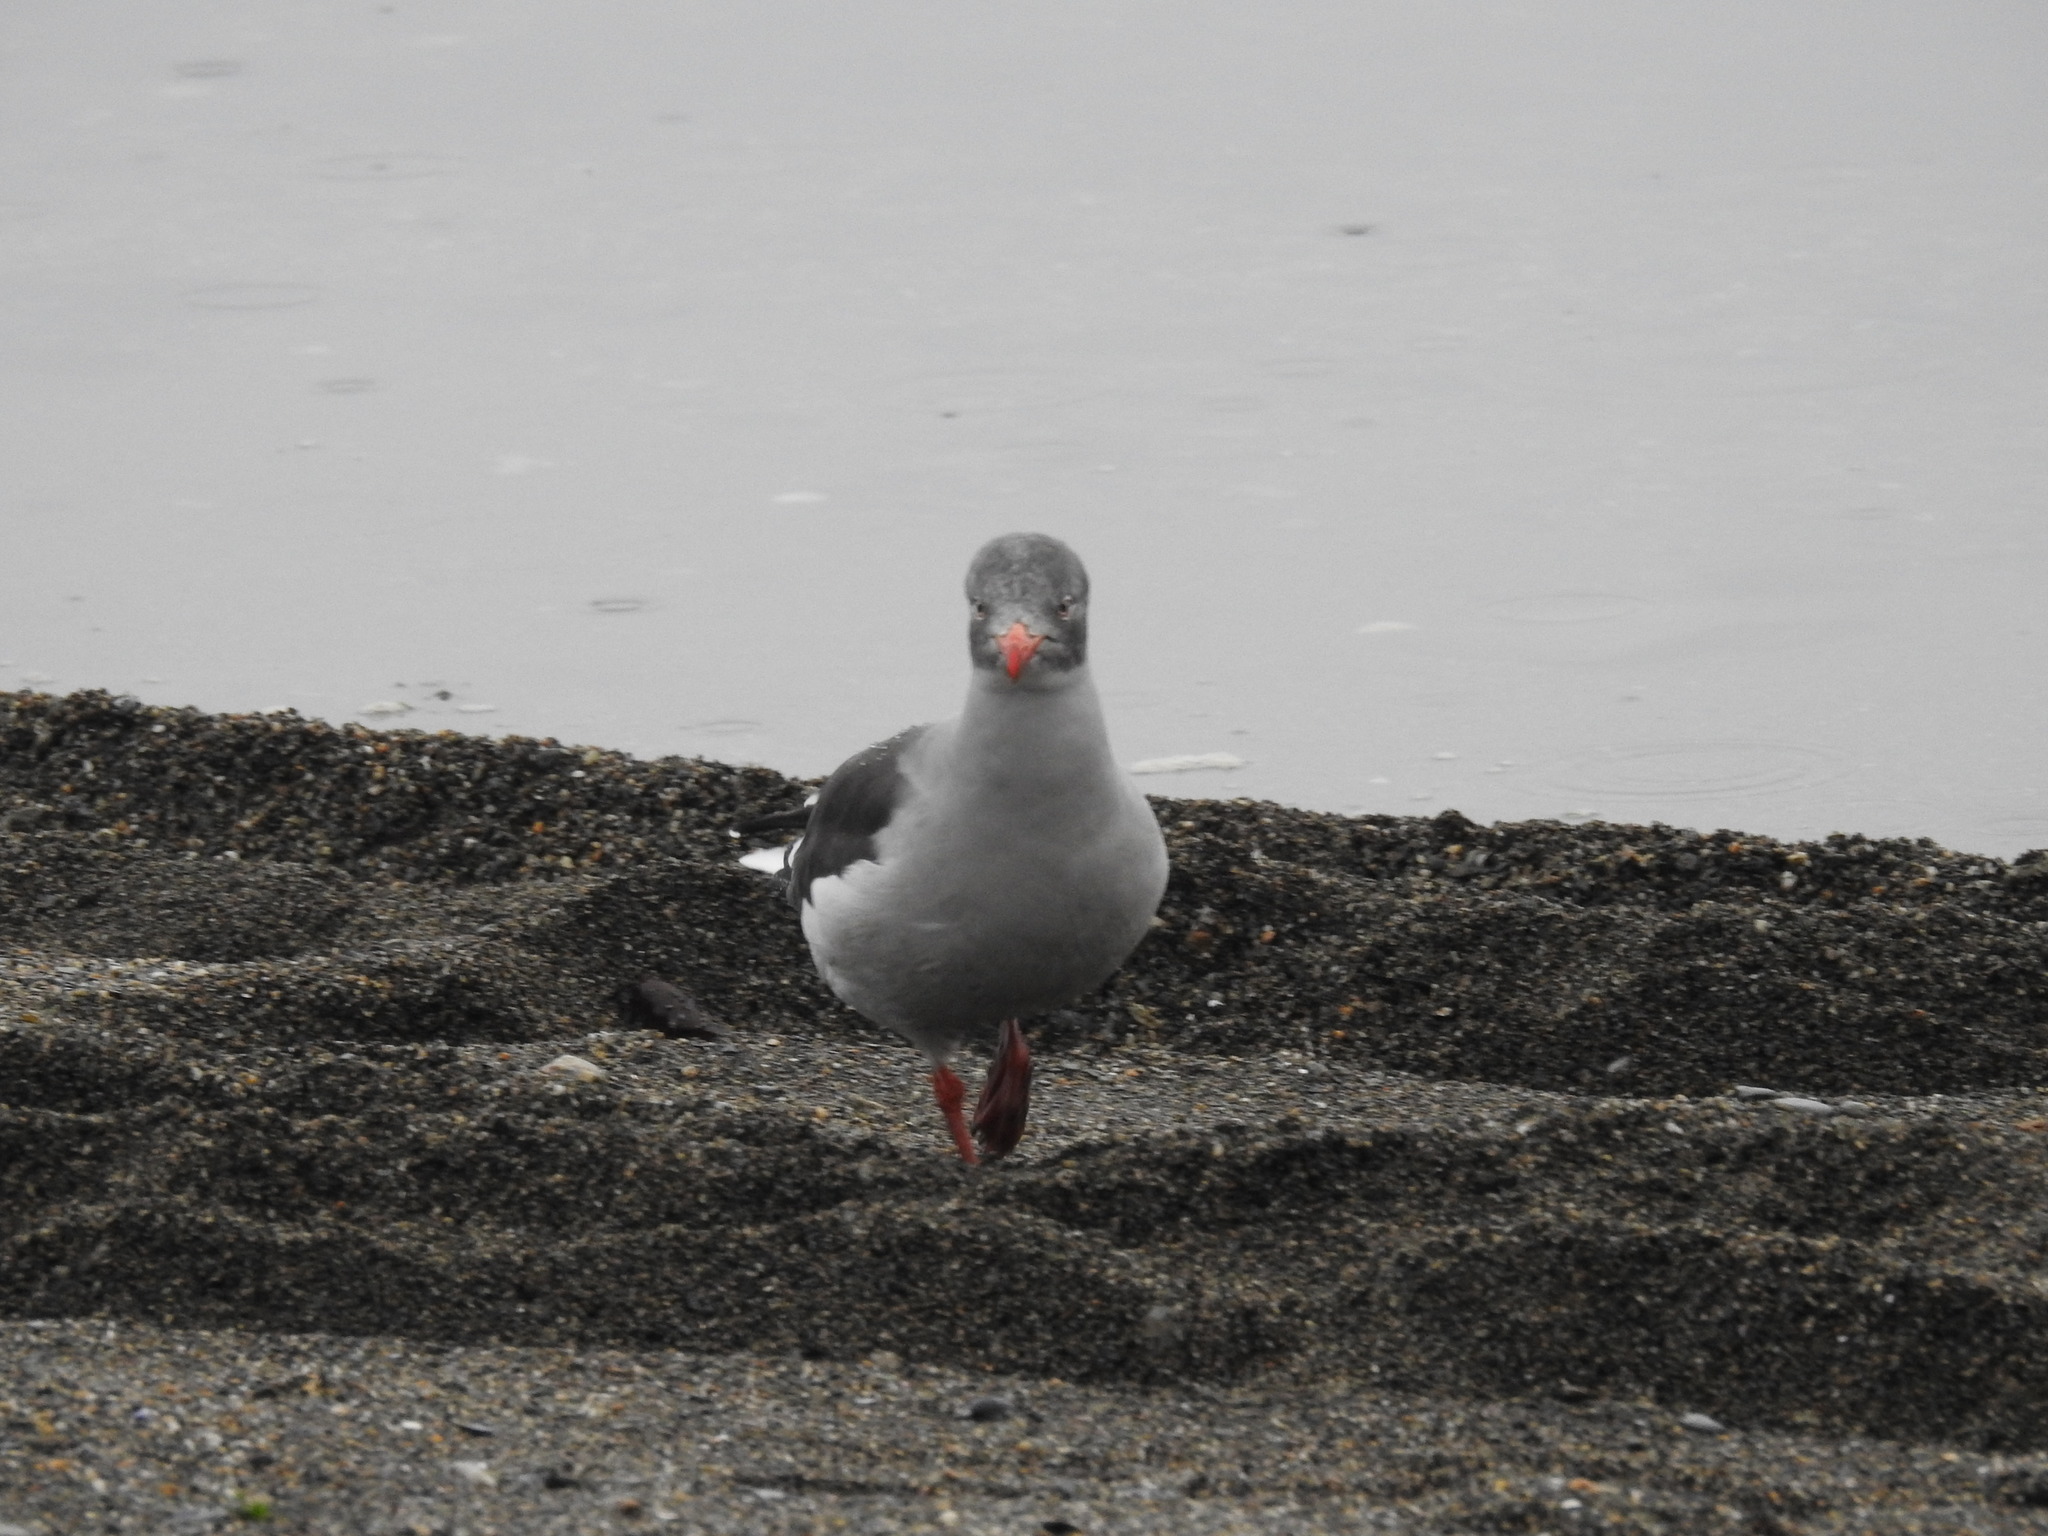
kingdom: Animalia
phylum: Chordata
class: Aves
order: Charadriiformes
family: Laridae
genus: Leucophaeus
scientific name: Leucophaeus scoresbii
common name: Dolphin gull
